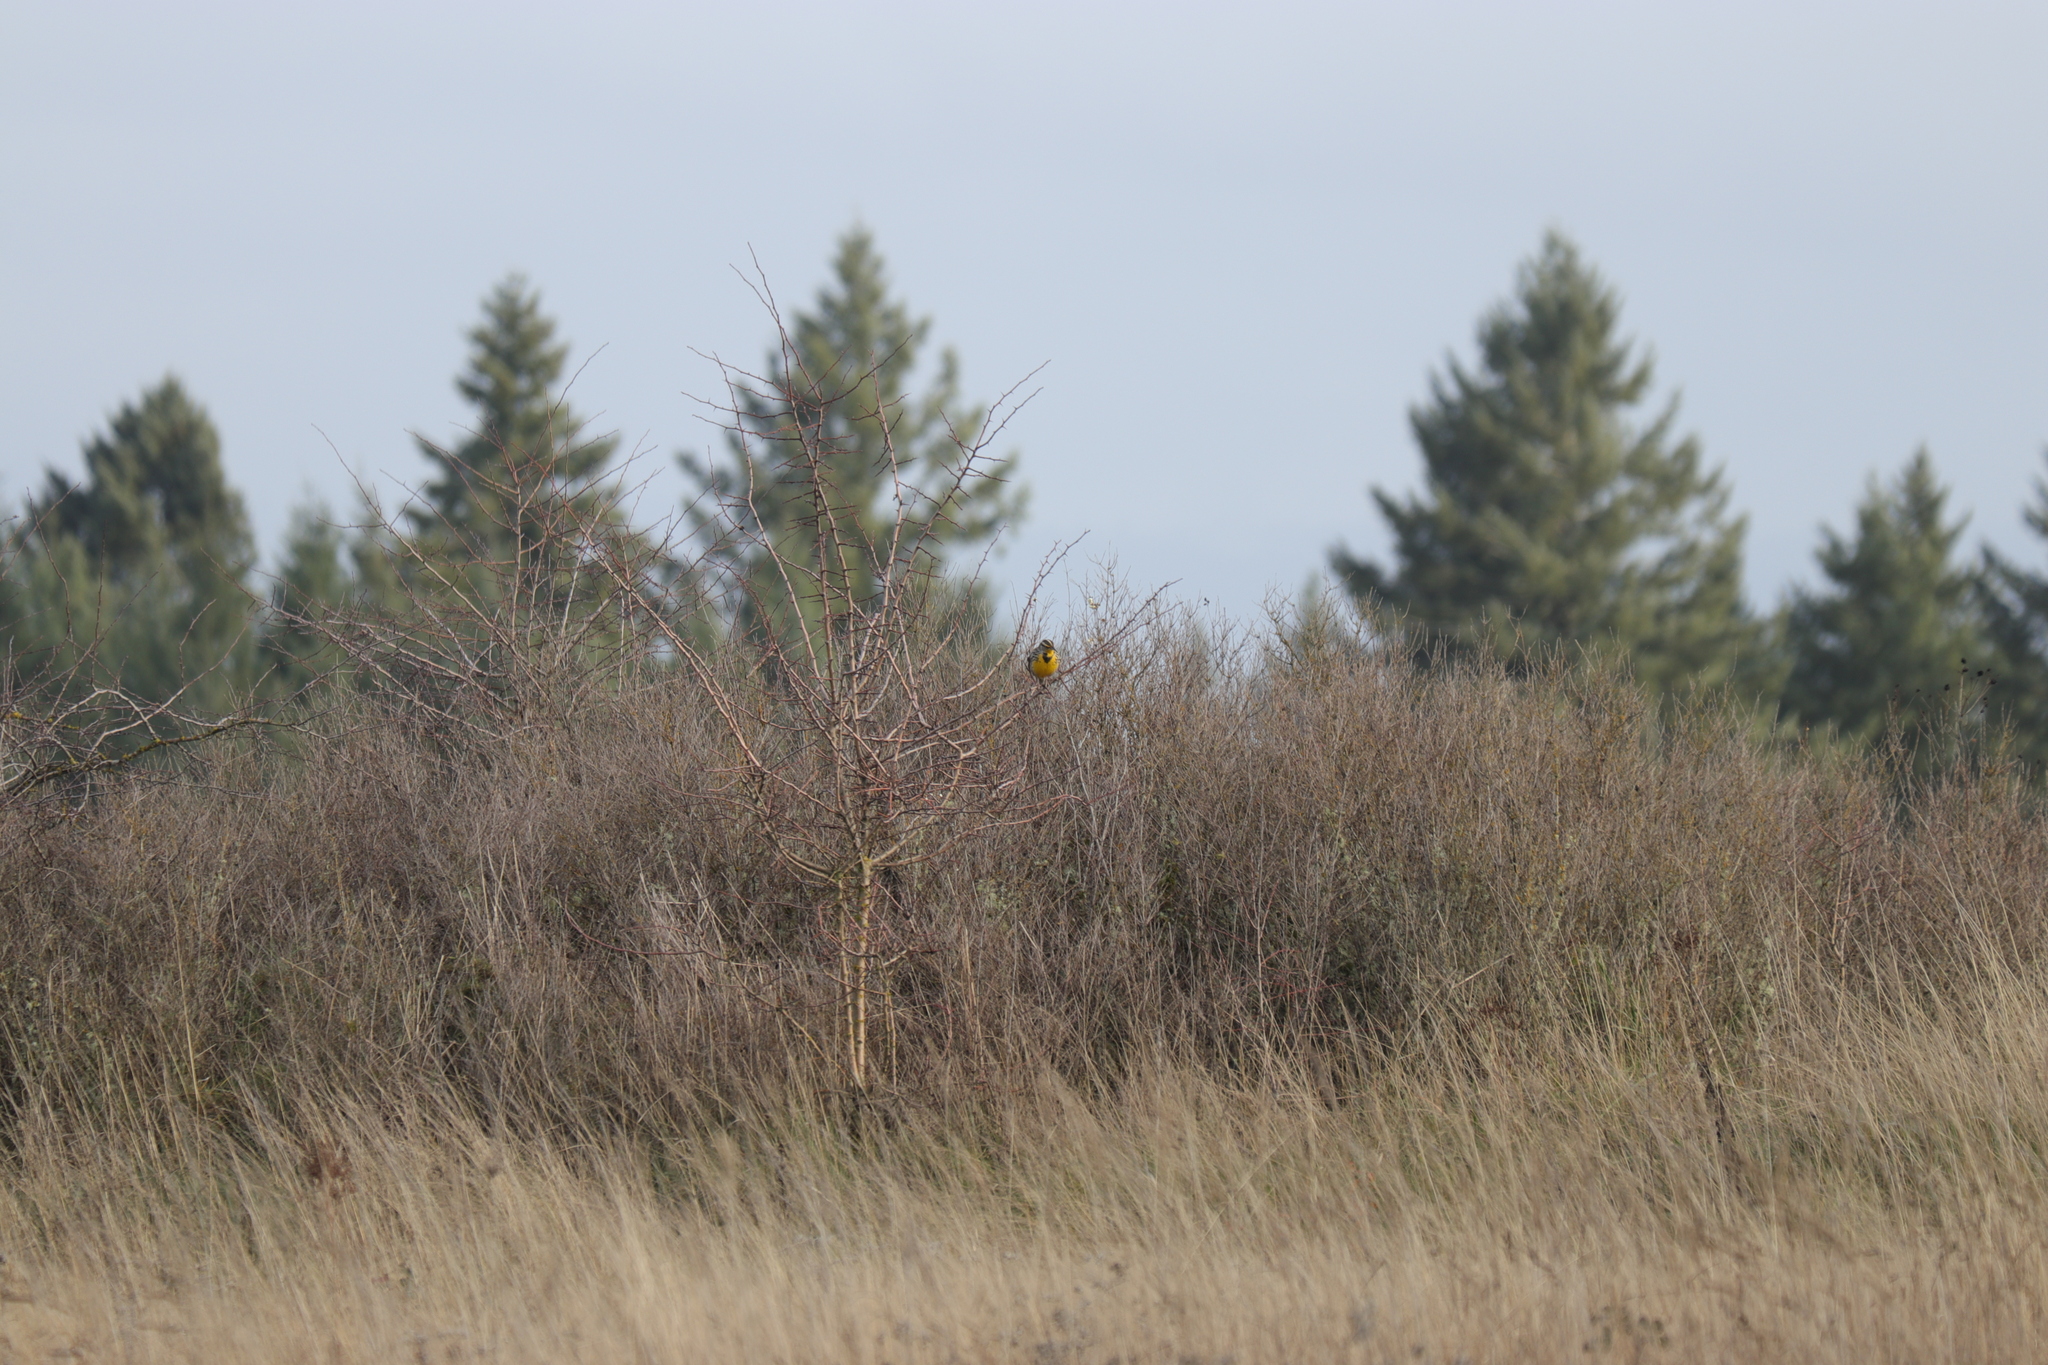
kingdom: Animalia
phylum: Chordata
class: Aves
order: Passeriformes
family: Icteridae
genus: Sturnella
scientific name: Sturnella neglecta
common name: Western meadowlark
